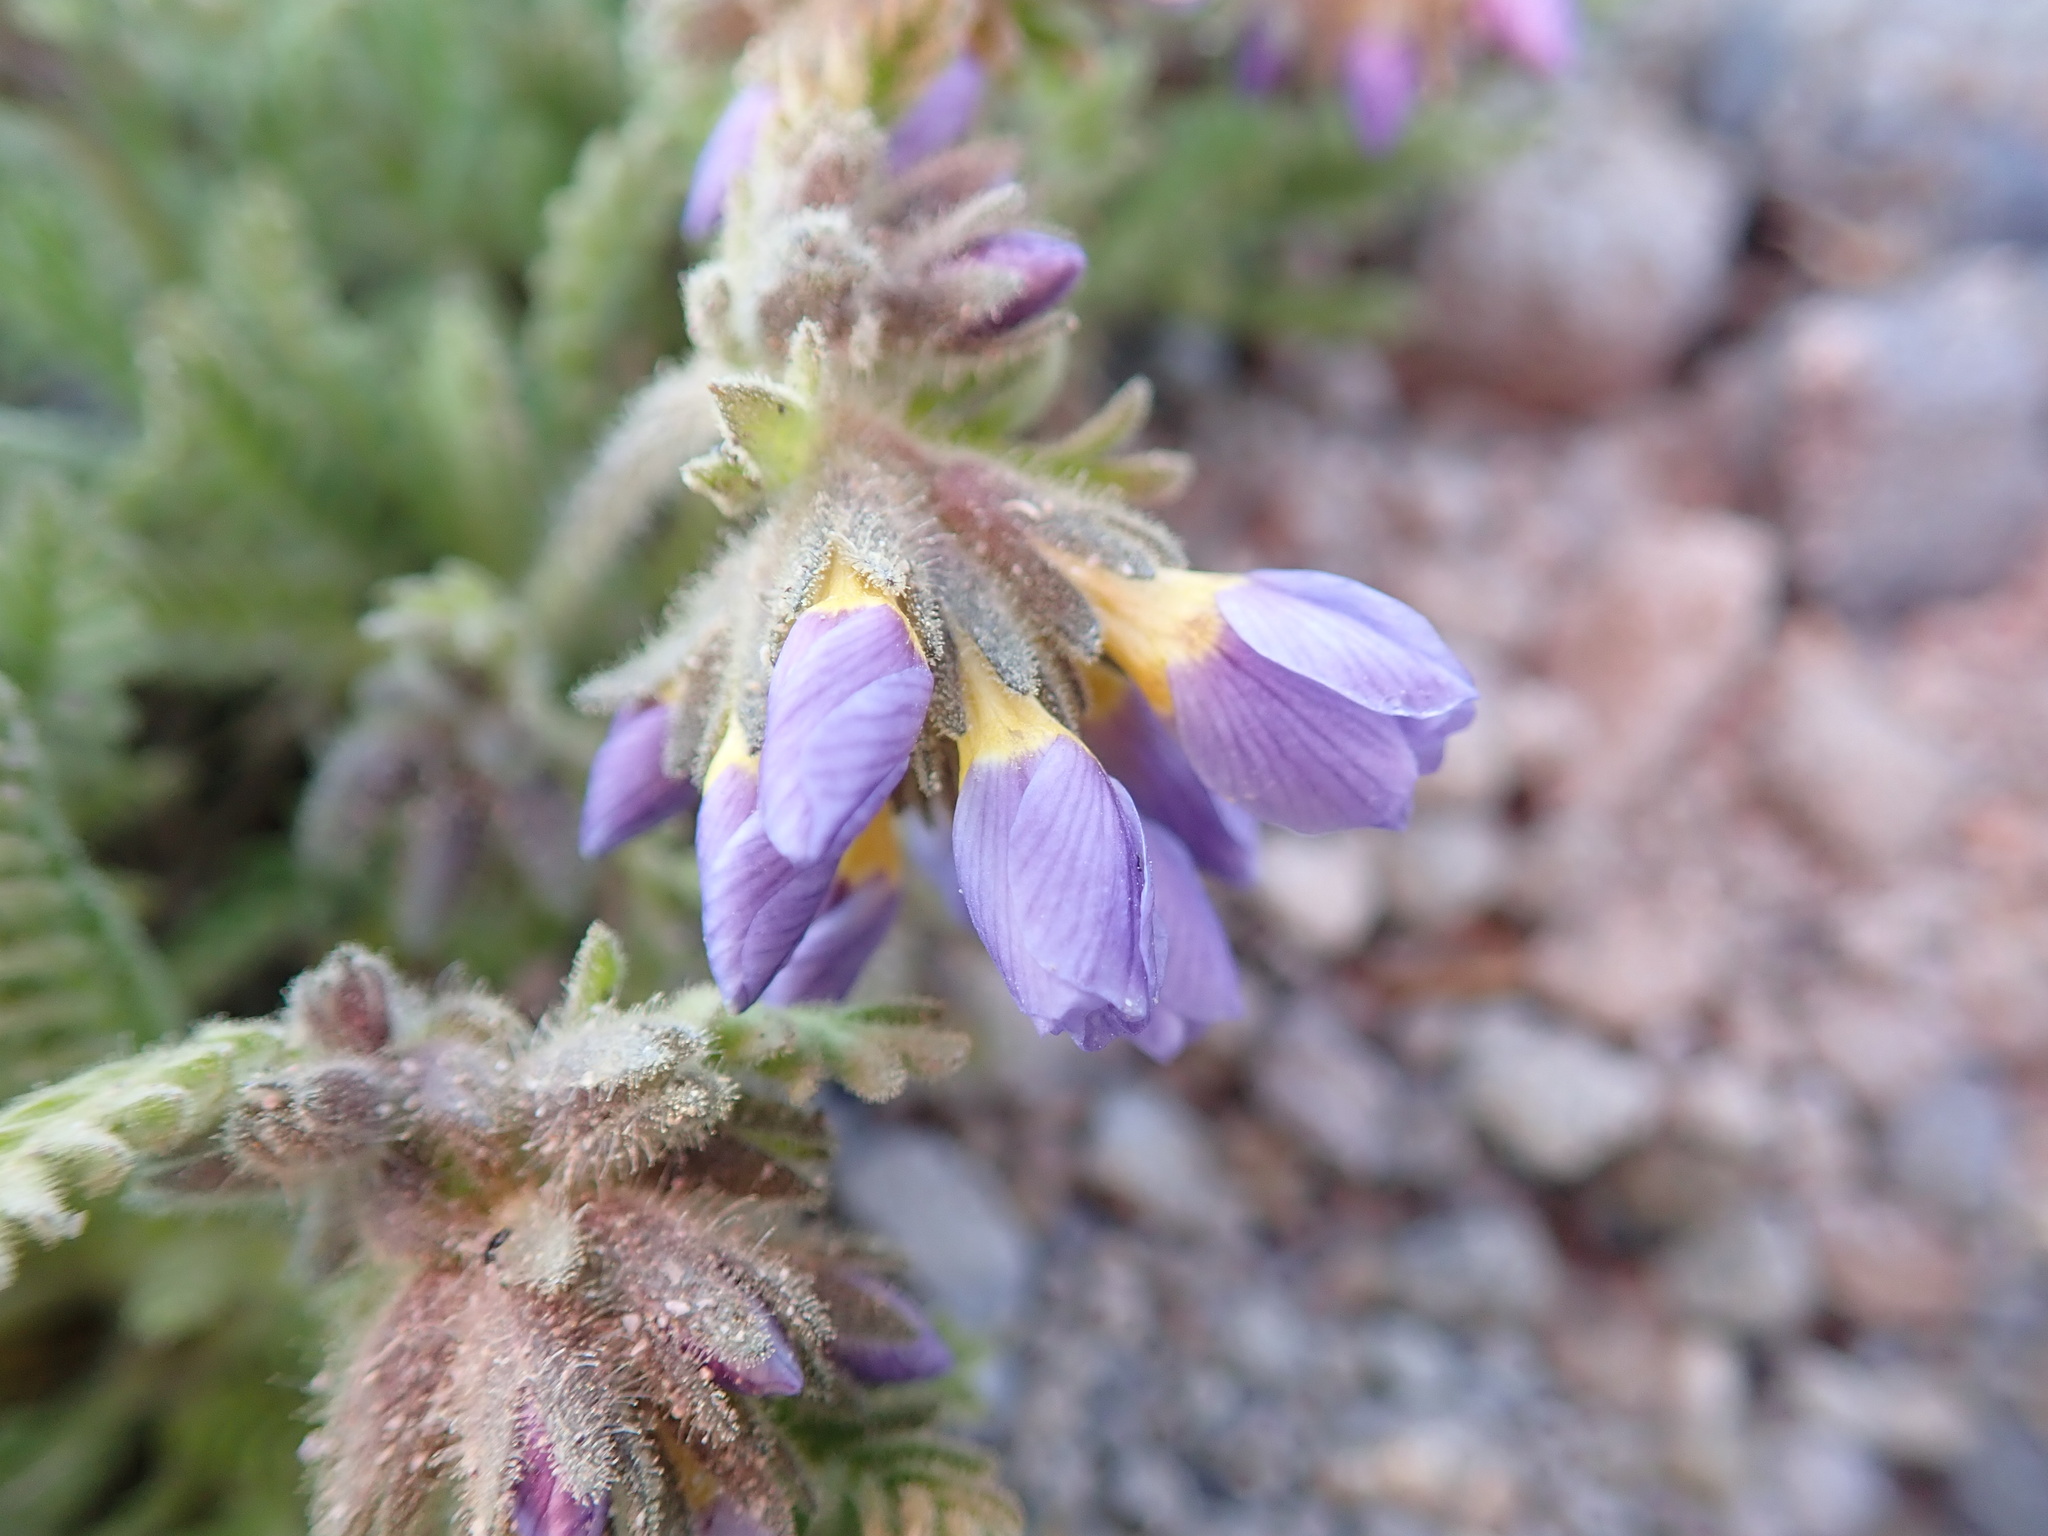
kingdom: Plantae
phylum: Tracheophyta
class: Magnoliopsida
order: Ericales
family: Polemoniaceae
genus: Polemonium
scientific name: Polemonium elegans
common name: Elegant jacob's-ladder
